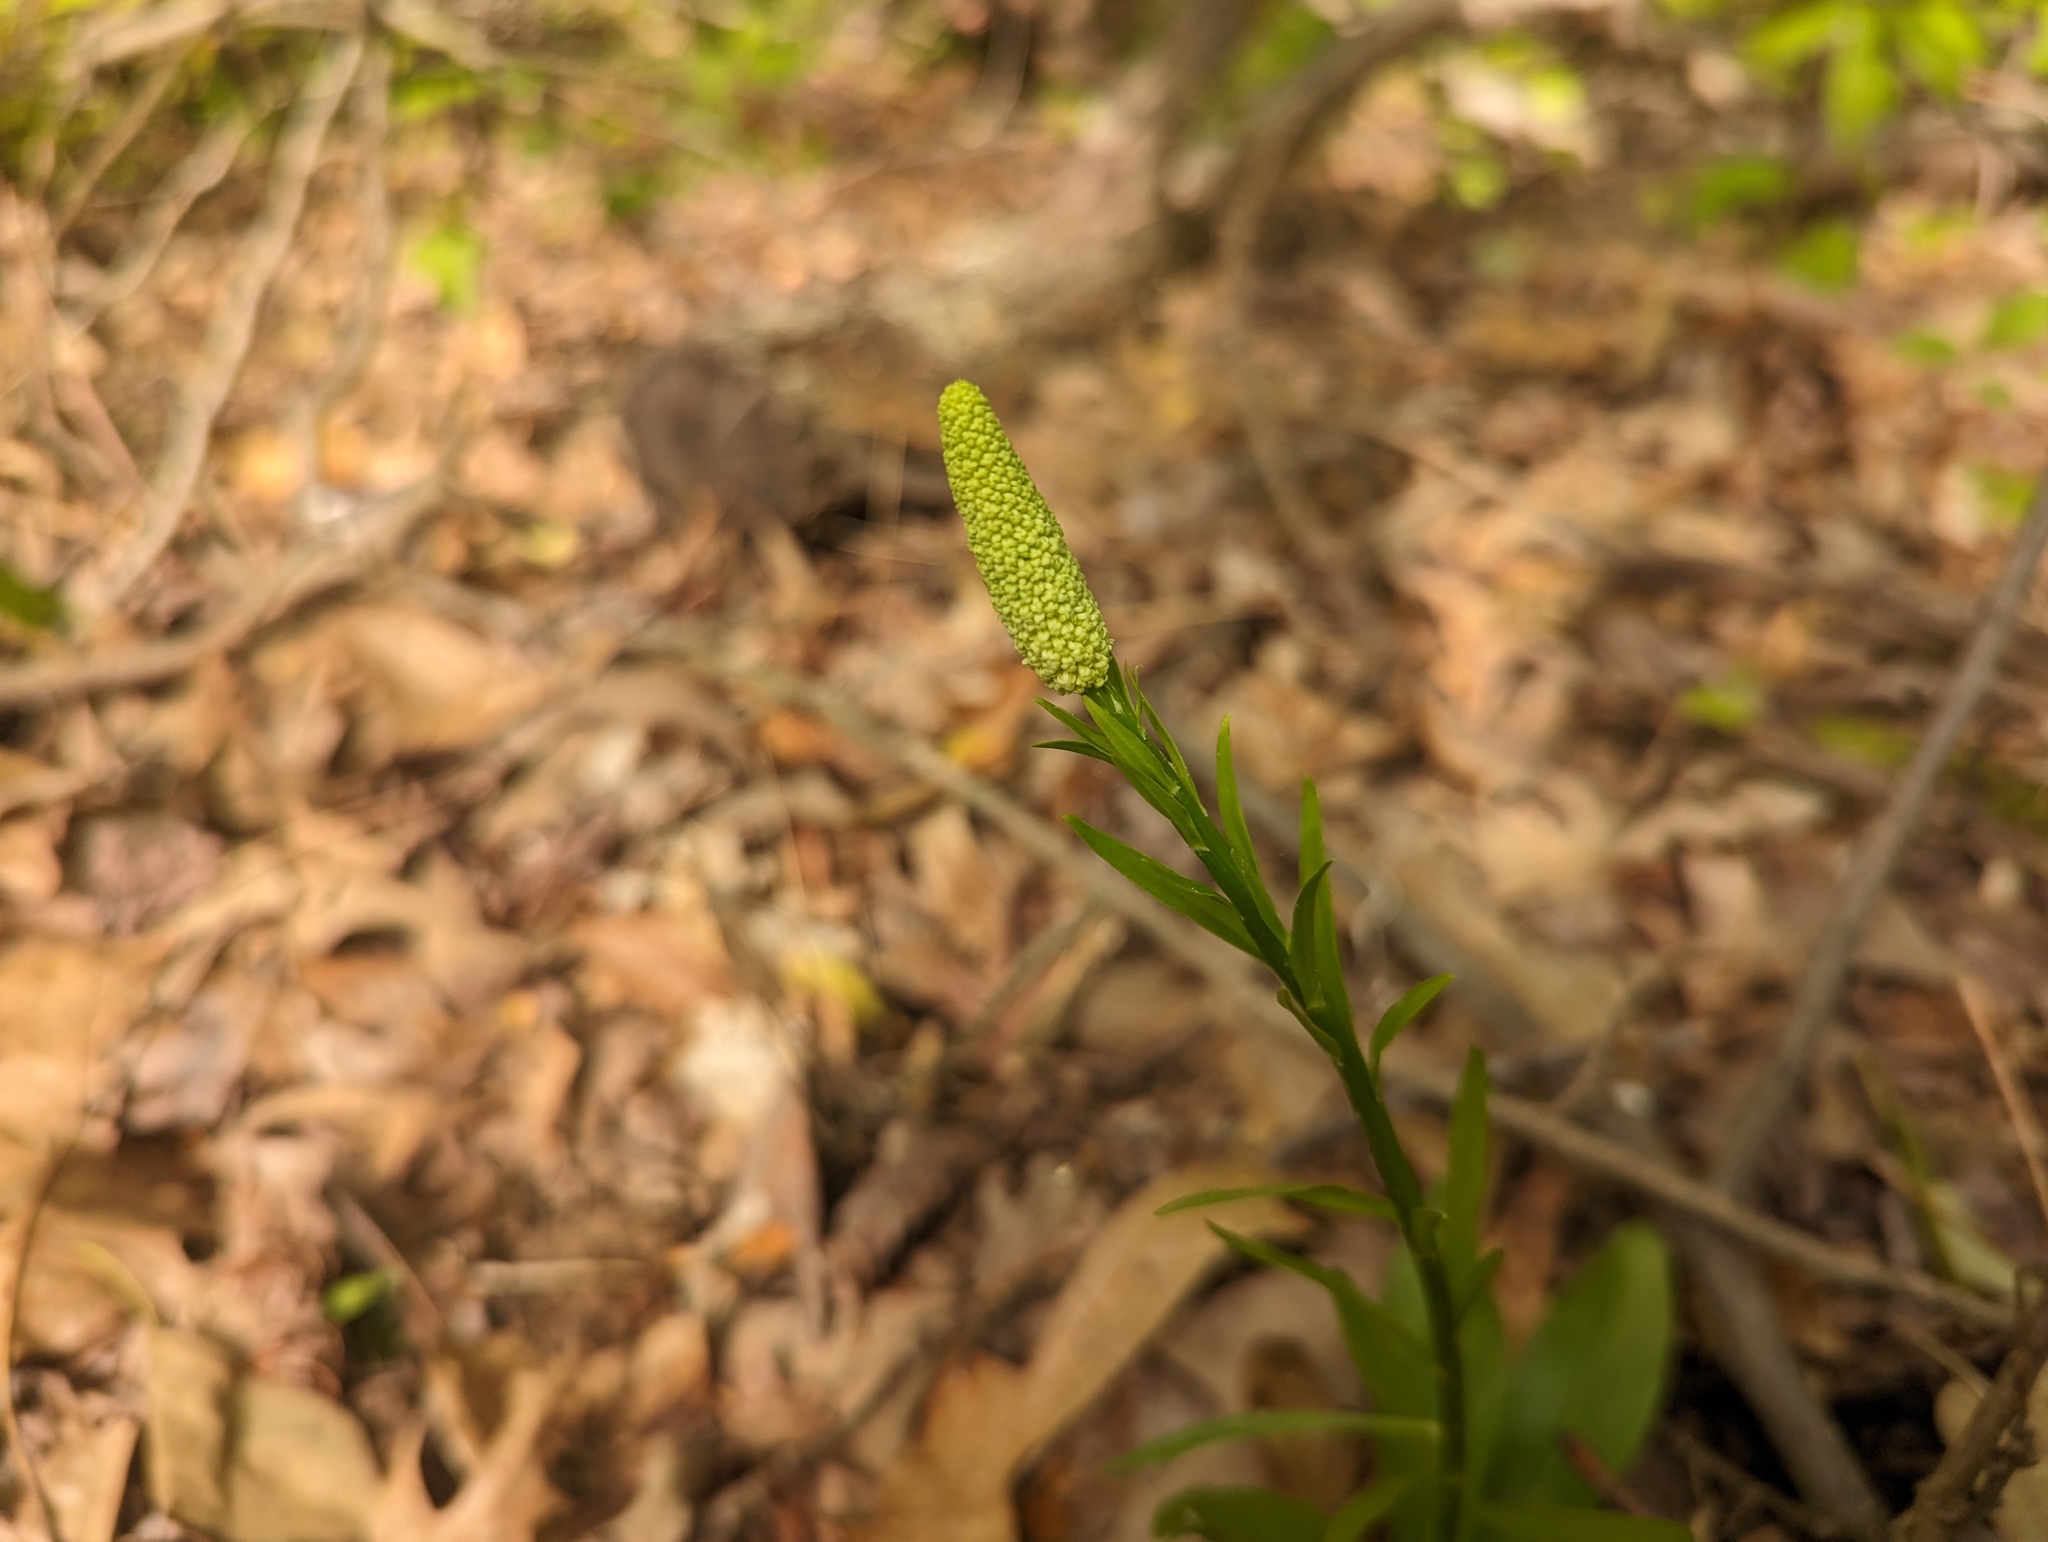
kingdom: Plantae
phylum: Tracheophyta
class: Liliopsida
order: Liliales
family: Melanthiaceae
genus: Chamaelirium
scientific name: Chamaelirium luteum
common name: Fairy-wand
